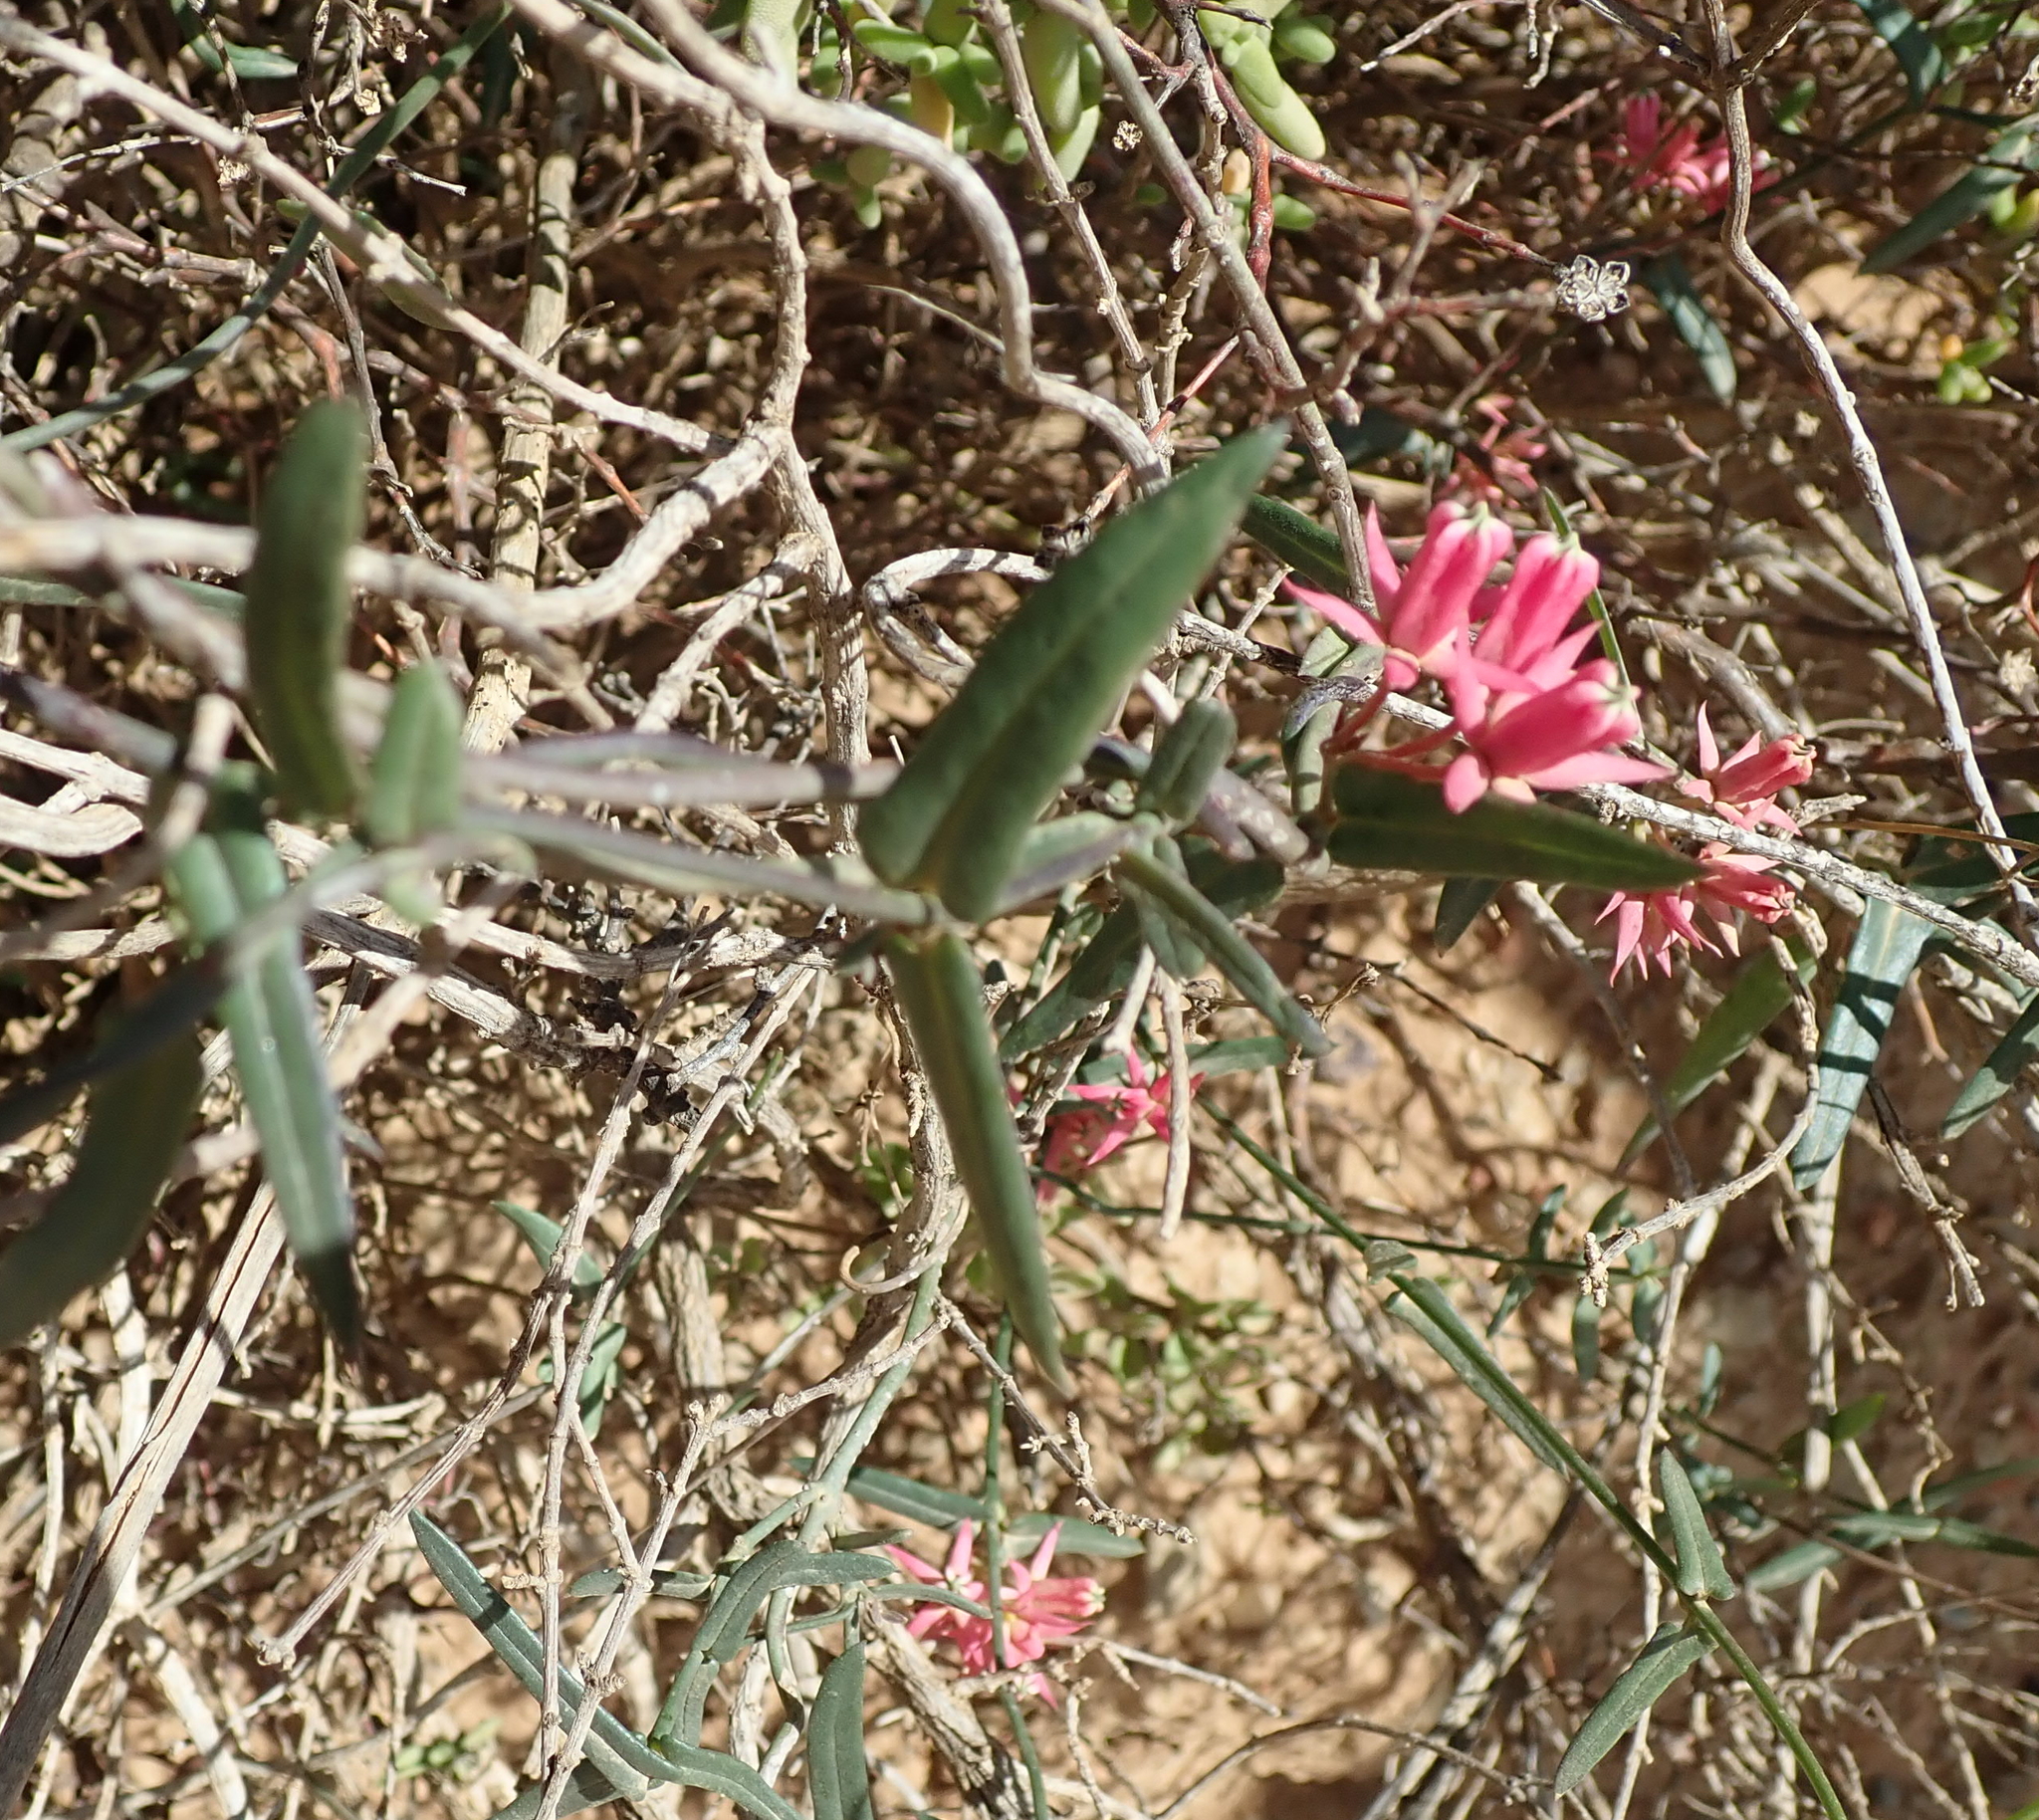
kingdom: Plantae
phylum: Tracheophyta
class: Magnoliopsida
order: Gentianales
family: Apocynaceae
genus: Microloma
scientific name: Microloma sagittatum
